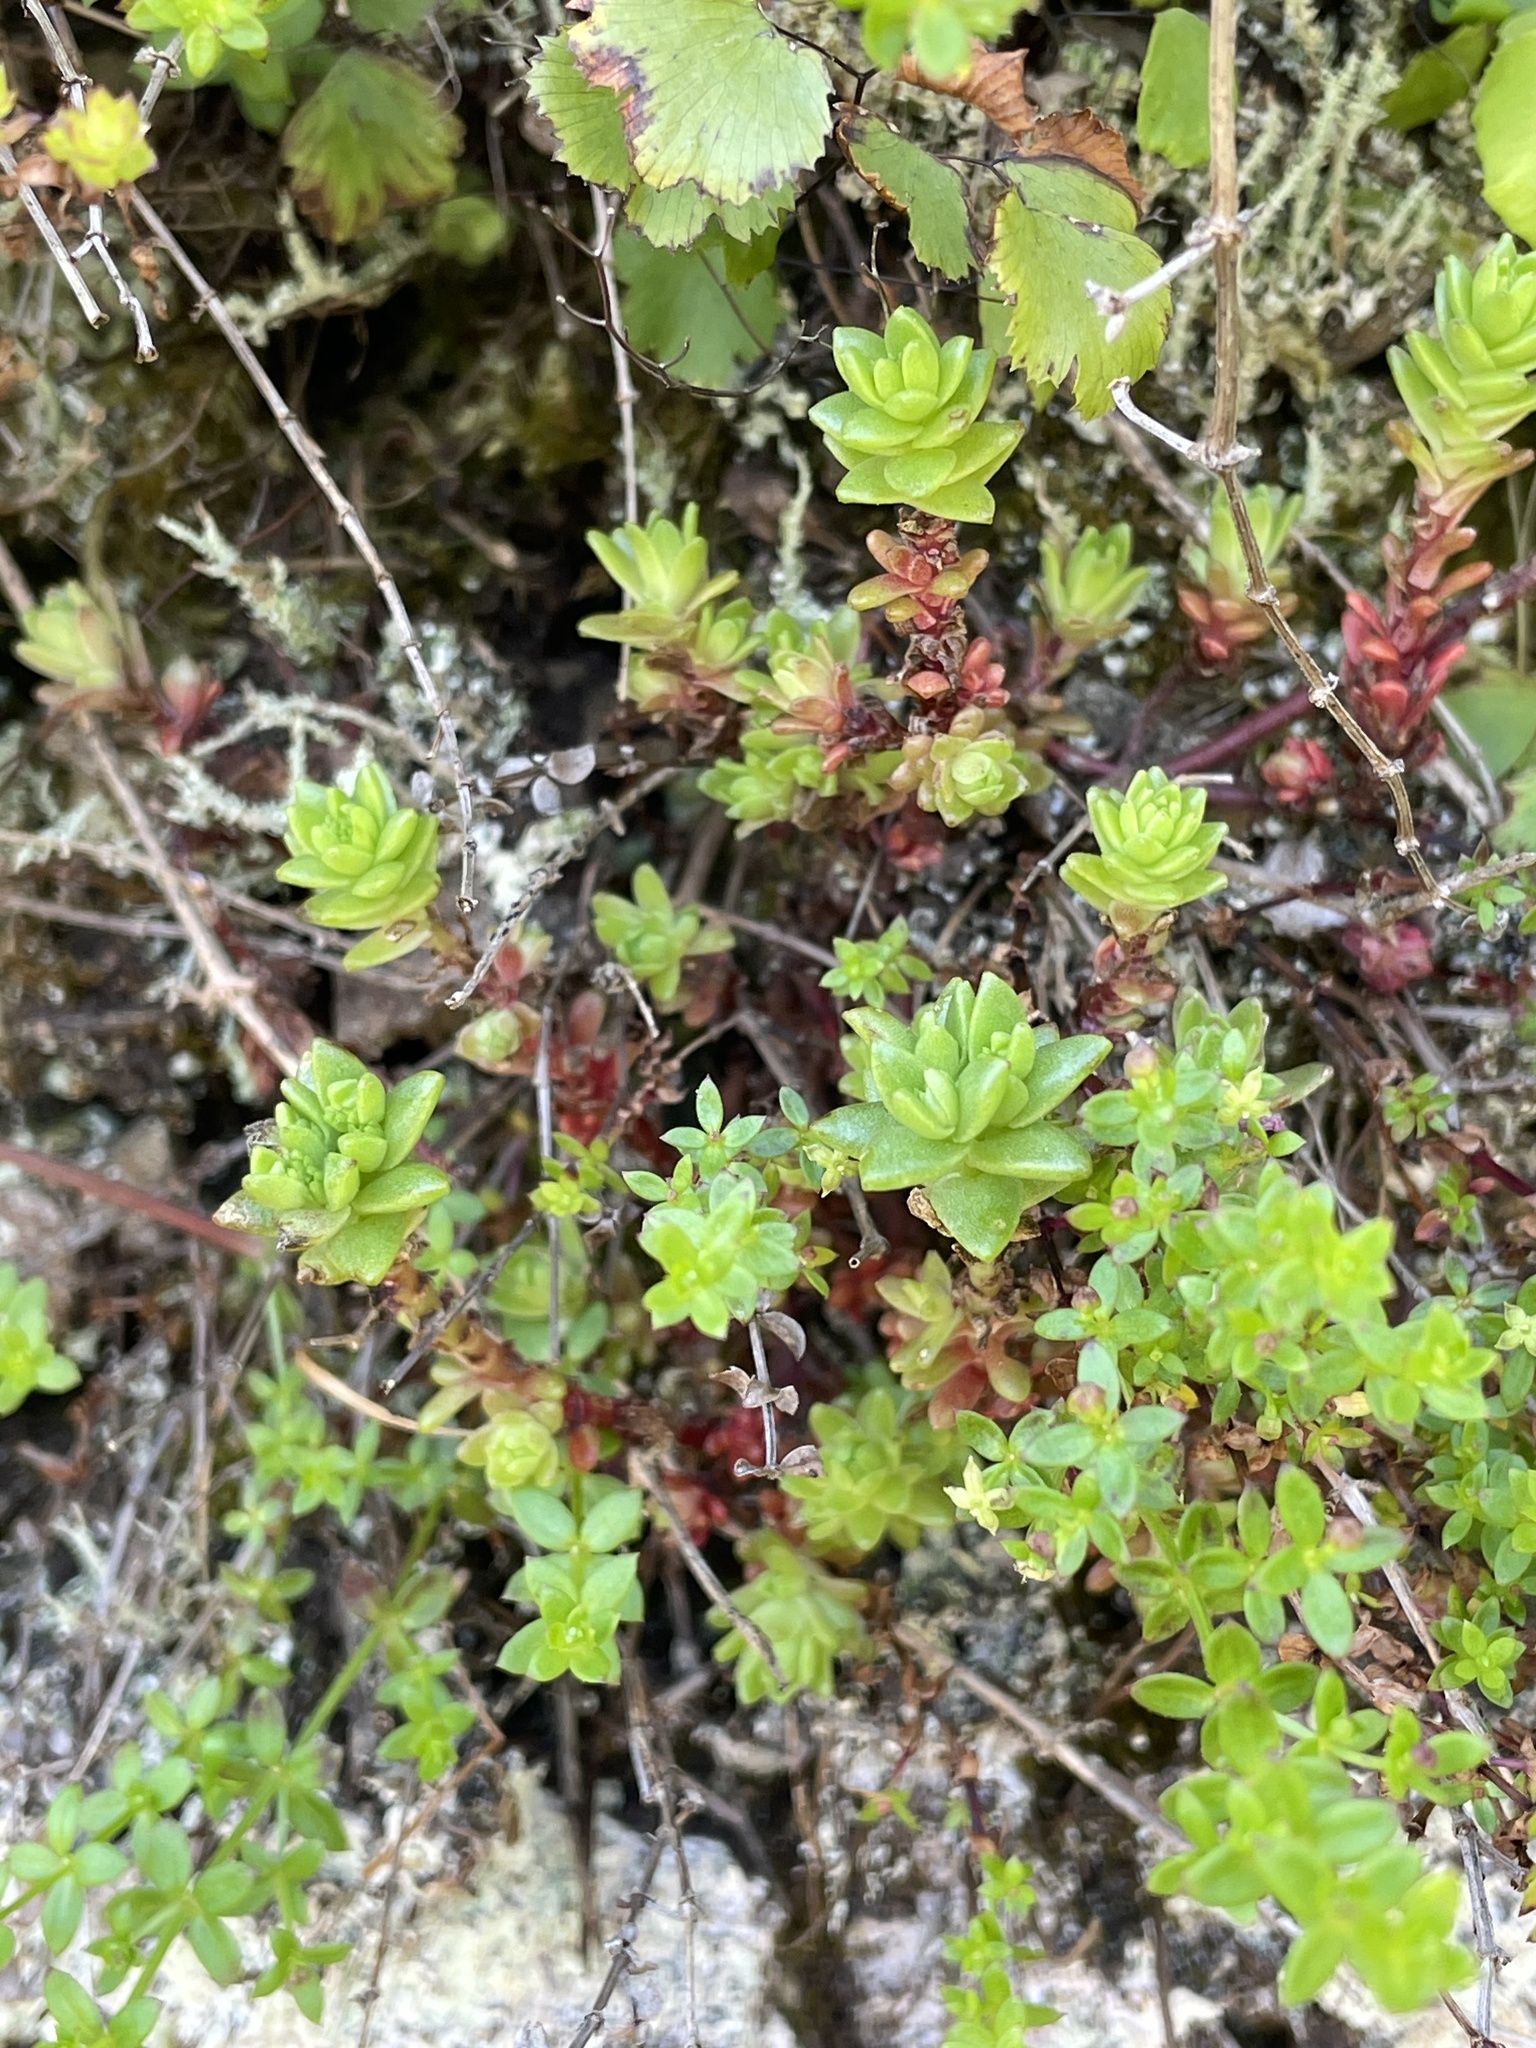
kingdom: Plantae
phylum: Tracheophyta
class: Magnoliopsida
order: Saxifragales
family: Crassulaceae
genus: Sedum
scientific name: Sedum radiatum
